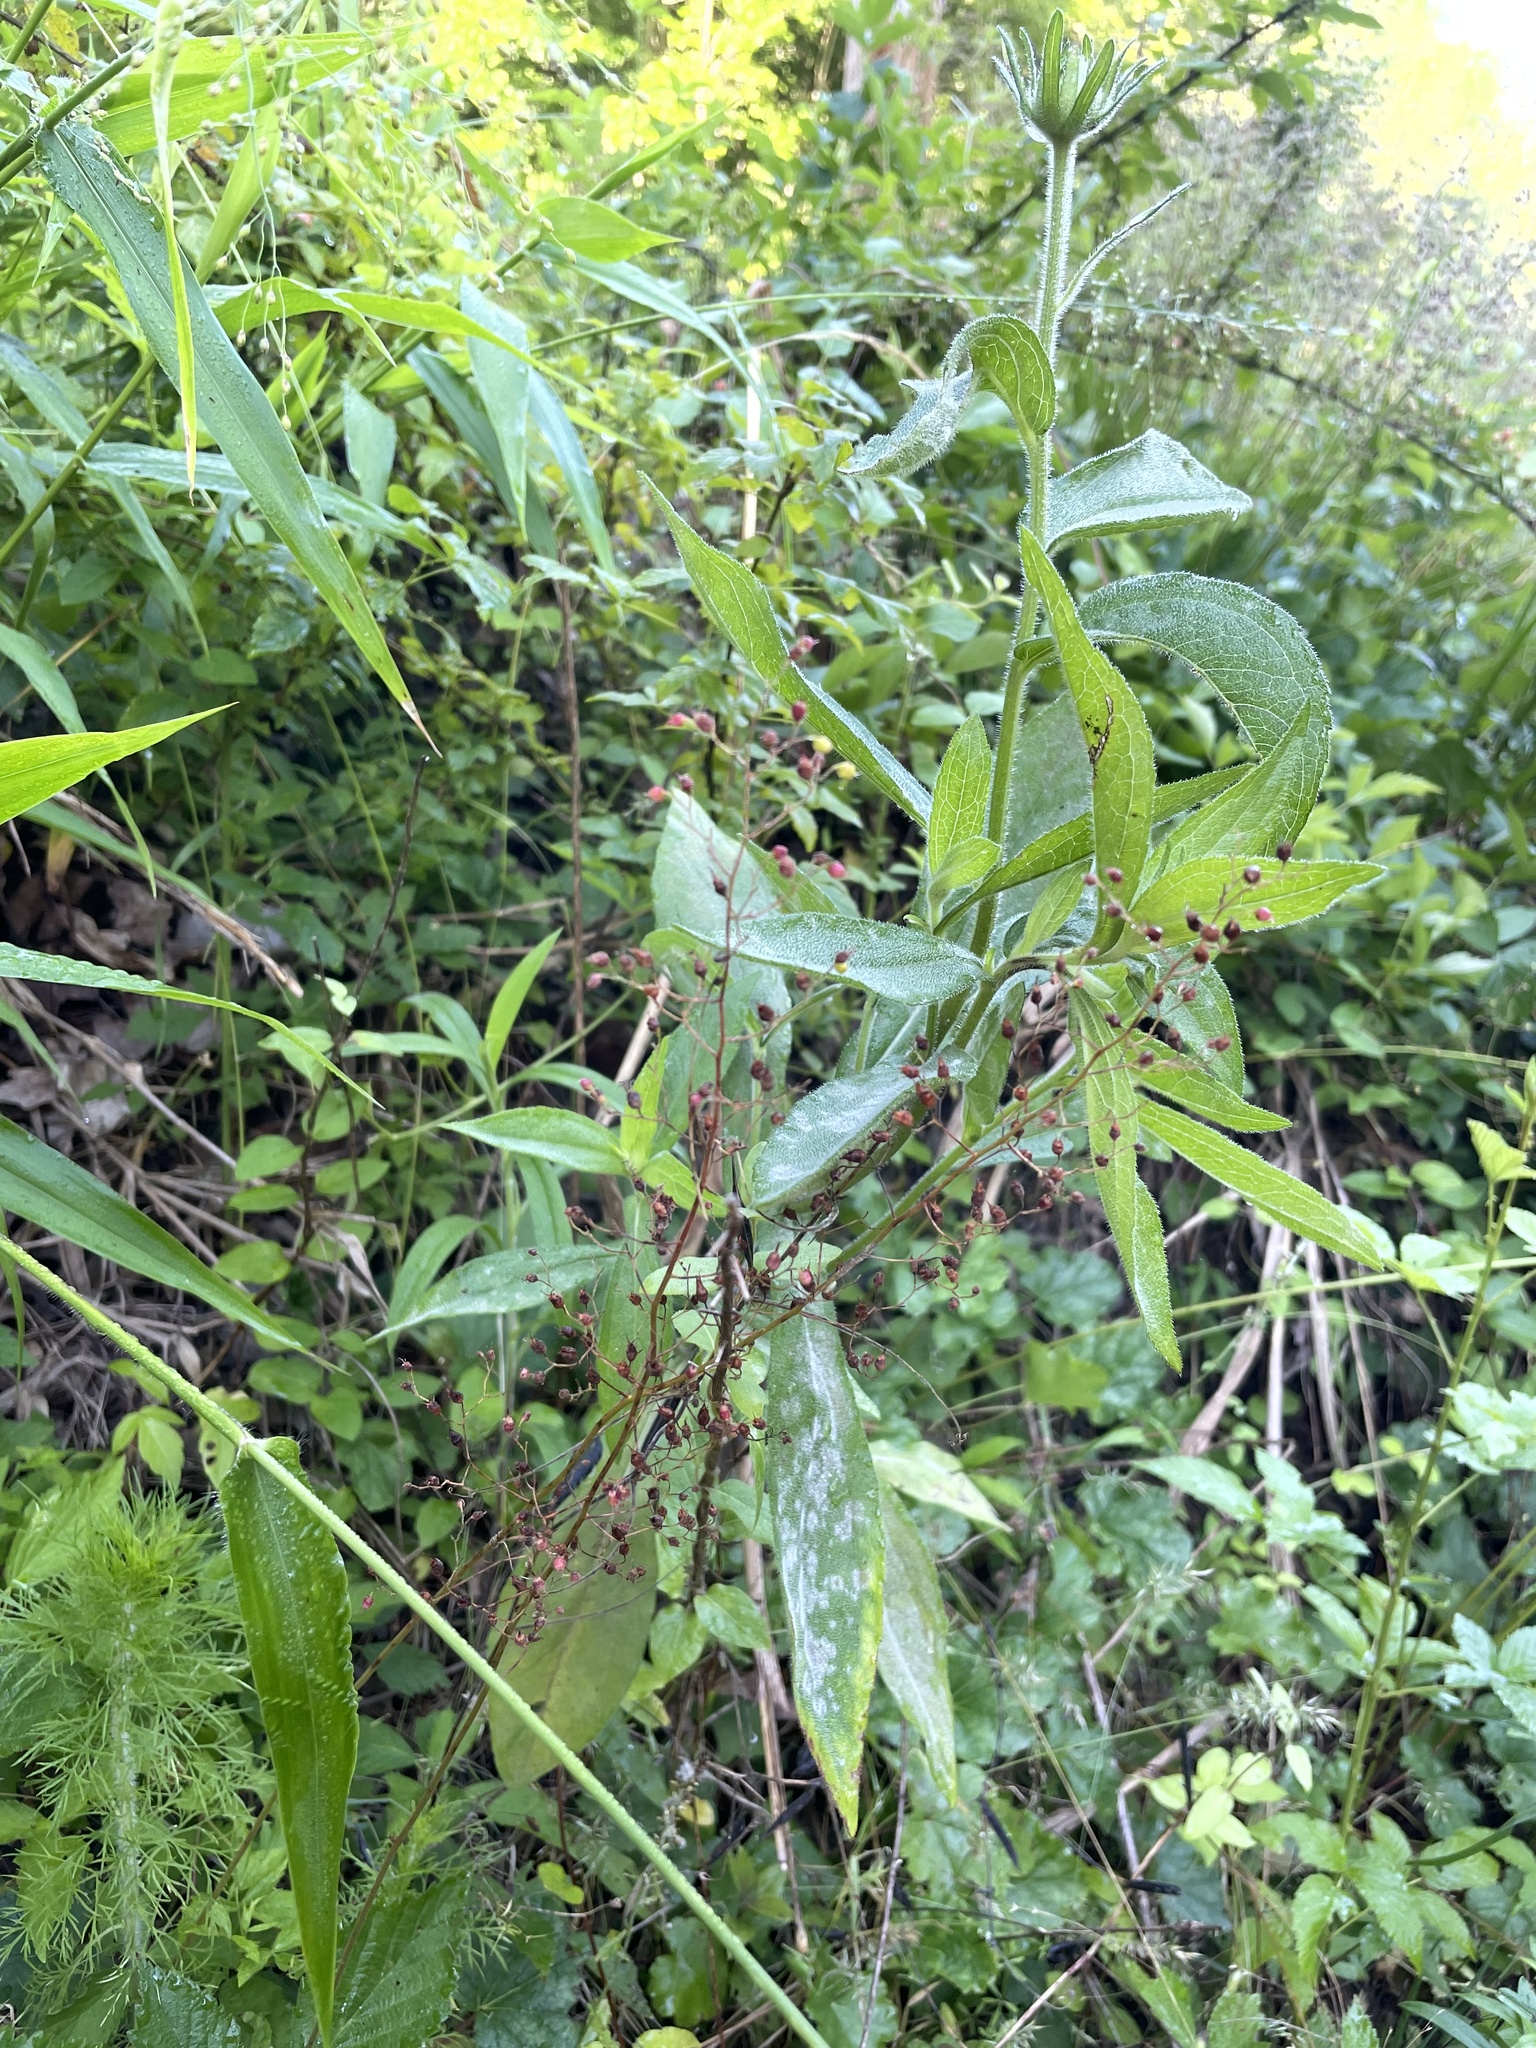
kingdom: Plantae
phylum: Tracheophyta
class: Magnoliopsida
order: Asterales
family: Asteraceae
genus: Rudbeckia
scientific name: Rudbeckia hirta
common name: Black-eyed-susan
